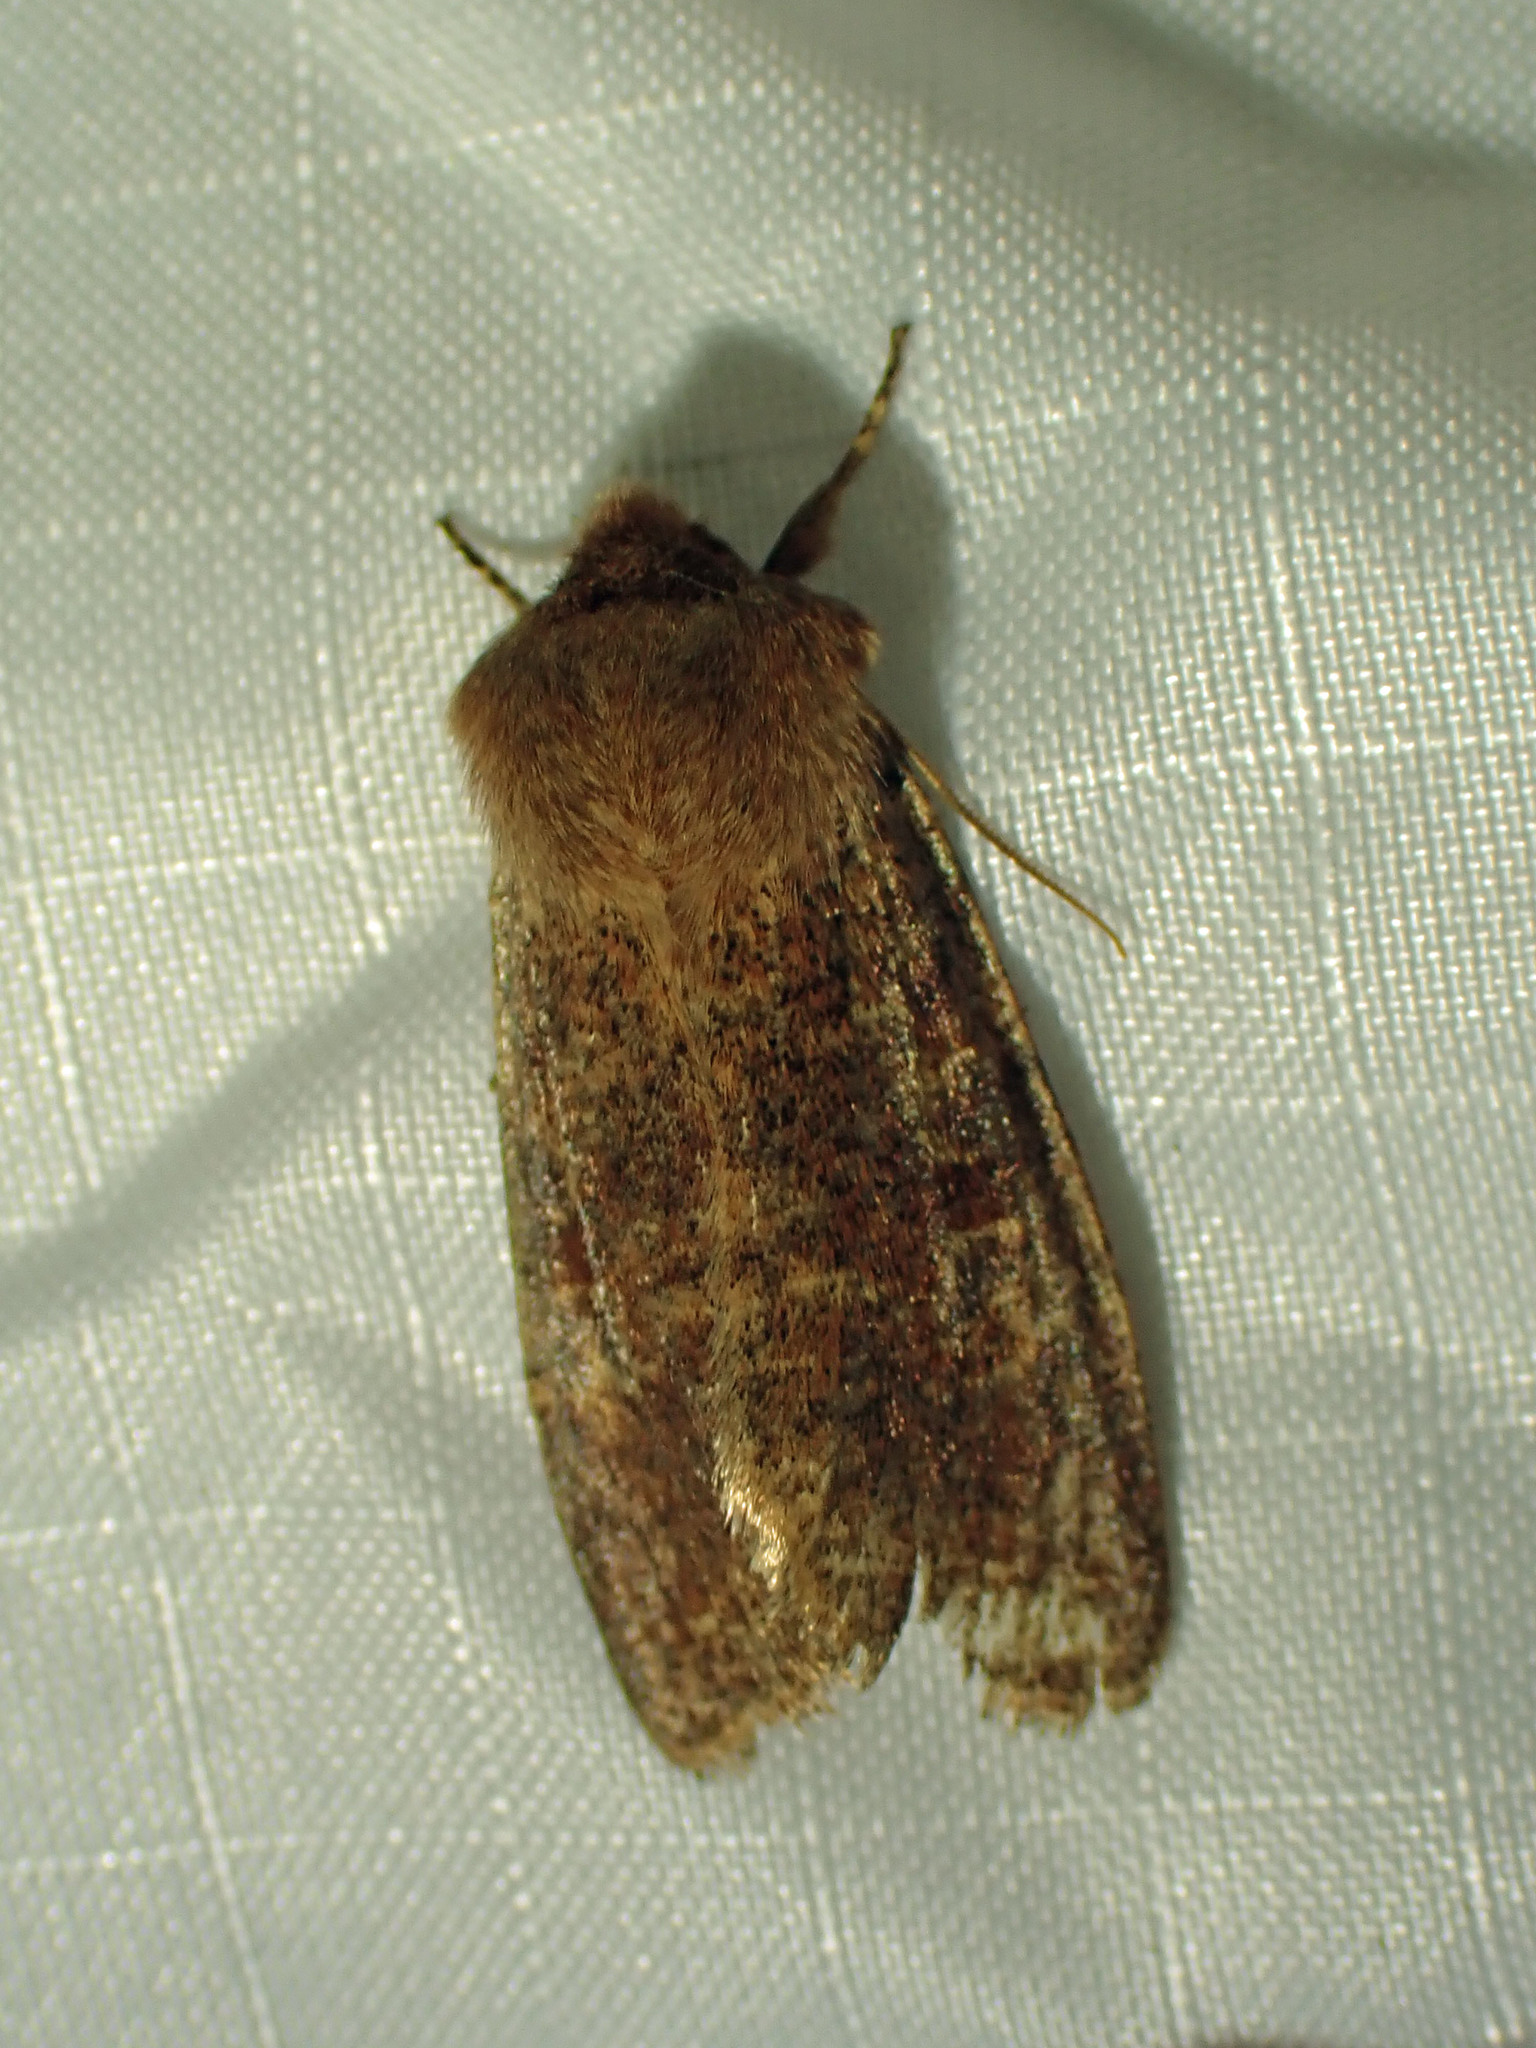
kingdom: Animalia
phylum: Arthropoda
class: Insecta
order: Lepidoptera
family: Noctuidae
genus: Orthosia
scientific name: Orthosia rubescens
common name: Ruby quaker
